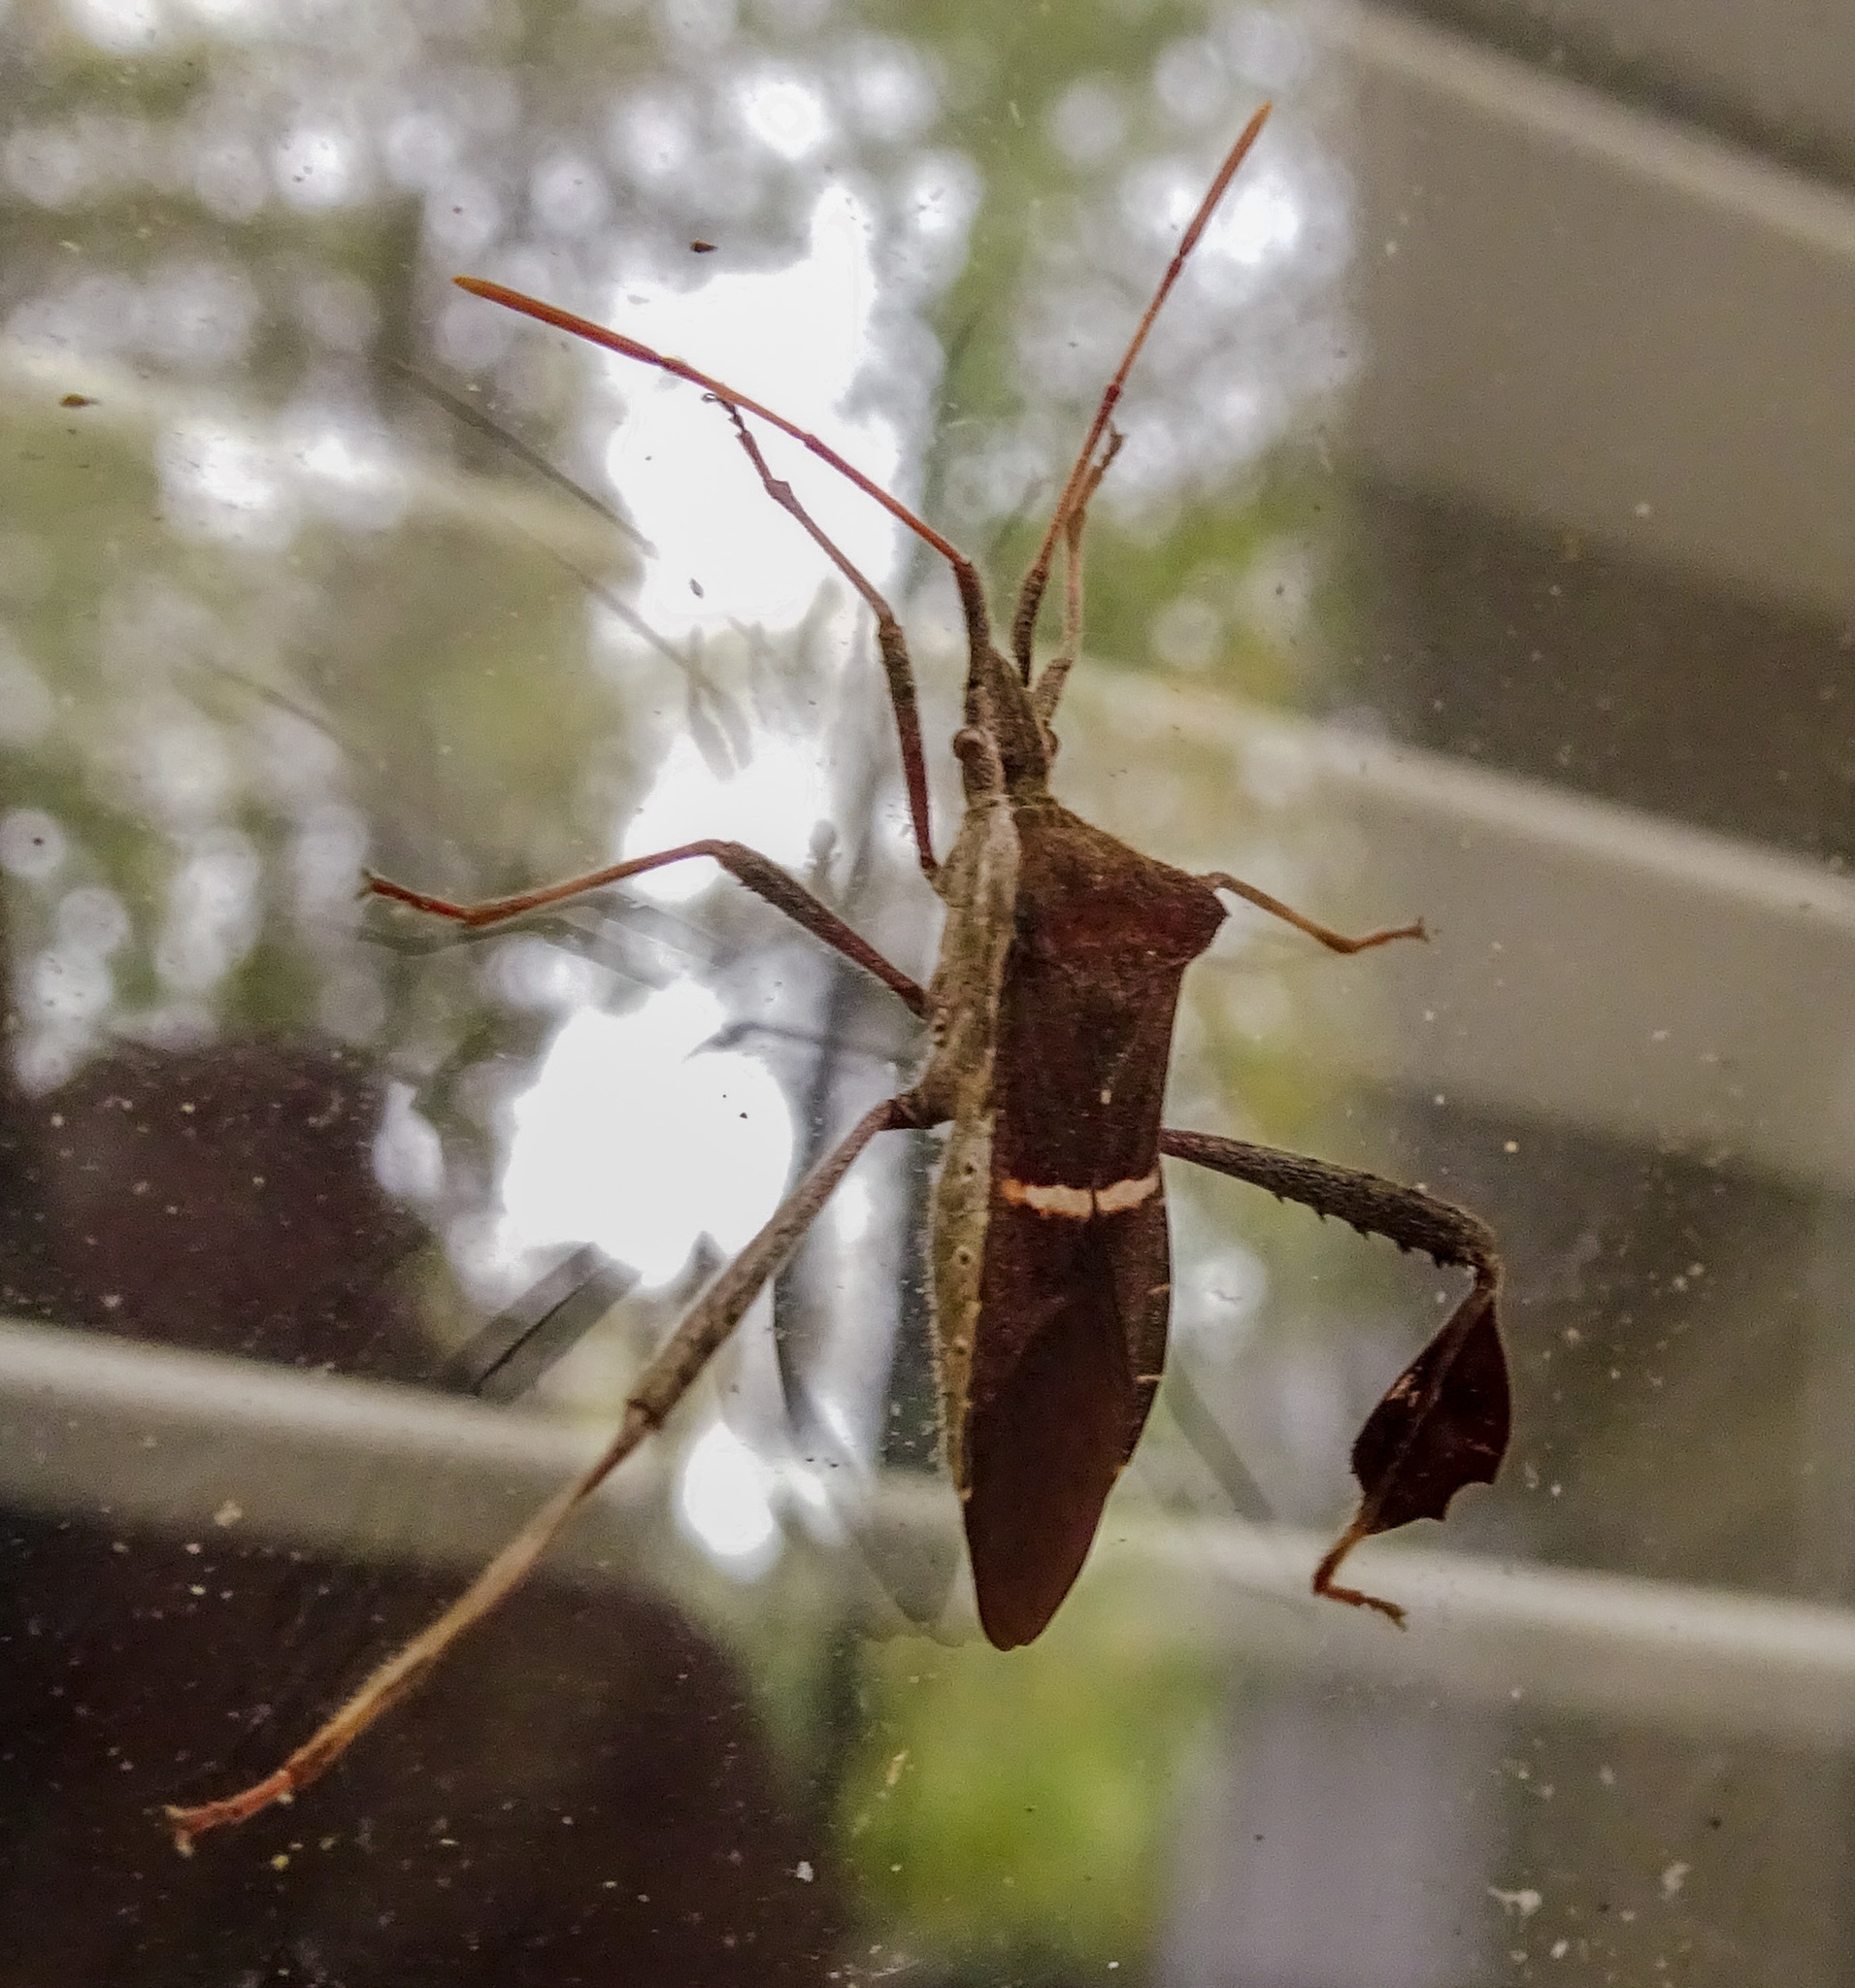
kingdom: Animalia
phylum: Arthropoda
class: Insecta
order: Hemiptera
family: Coreidae
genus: Leptoglossus
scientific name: Leptoglossus phyllopus
